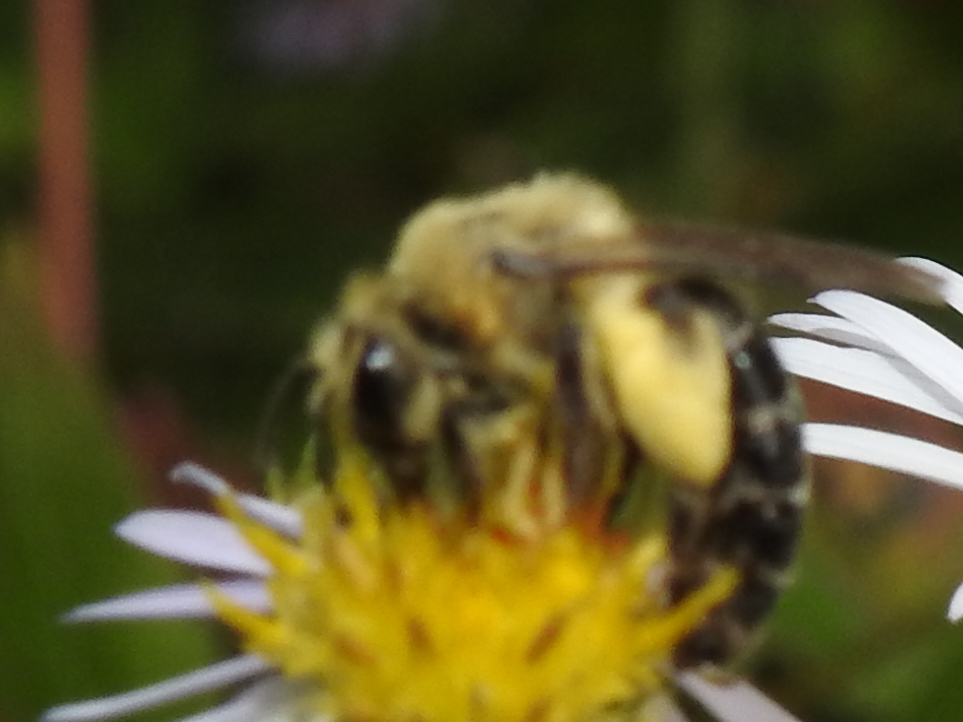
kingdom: Animalia
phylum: Arthropoda
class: Insecta
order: Hymenoptera
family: Andrenidae
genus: Andrena
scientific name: Andrena asteris
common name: Aster mining bee
